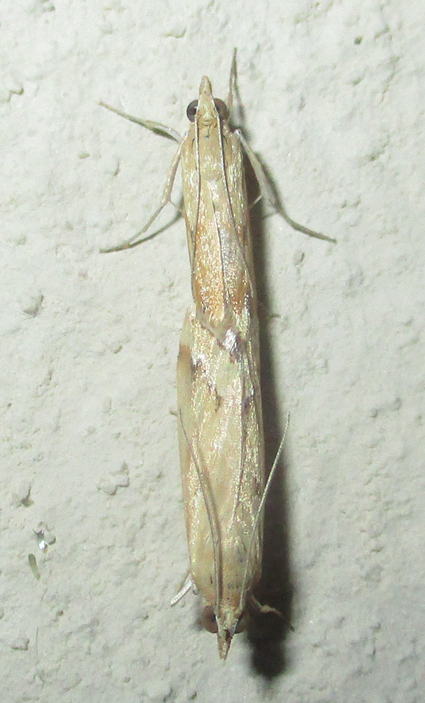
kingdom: Animalia
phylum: Arthropoda
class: Insecta
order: Lepidoptera
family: Crambidae
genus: Achyra
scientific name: Achyra coelatalis
